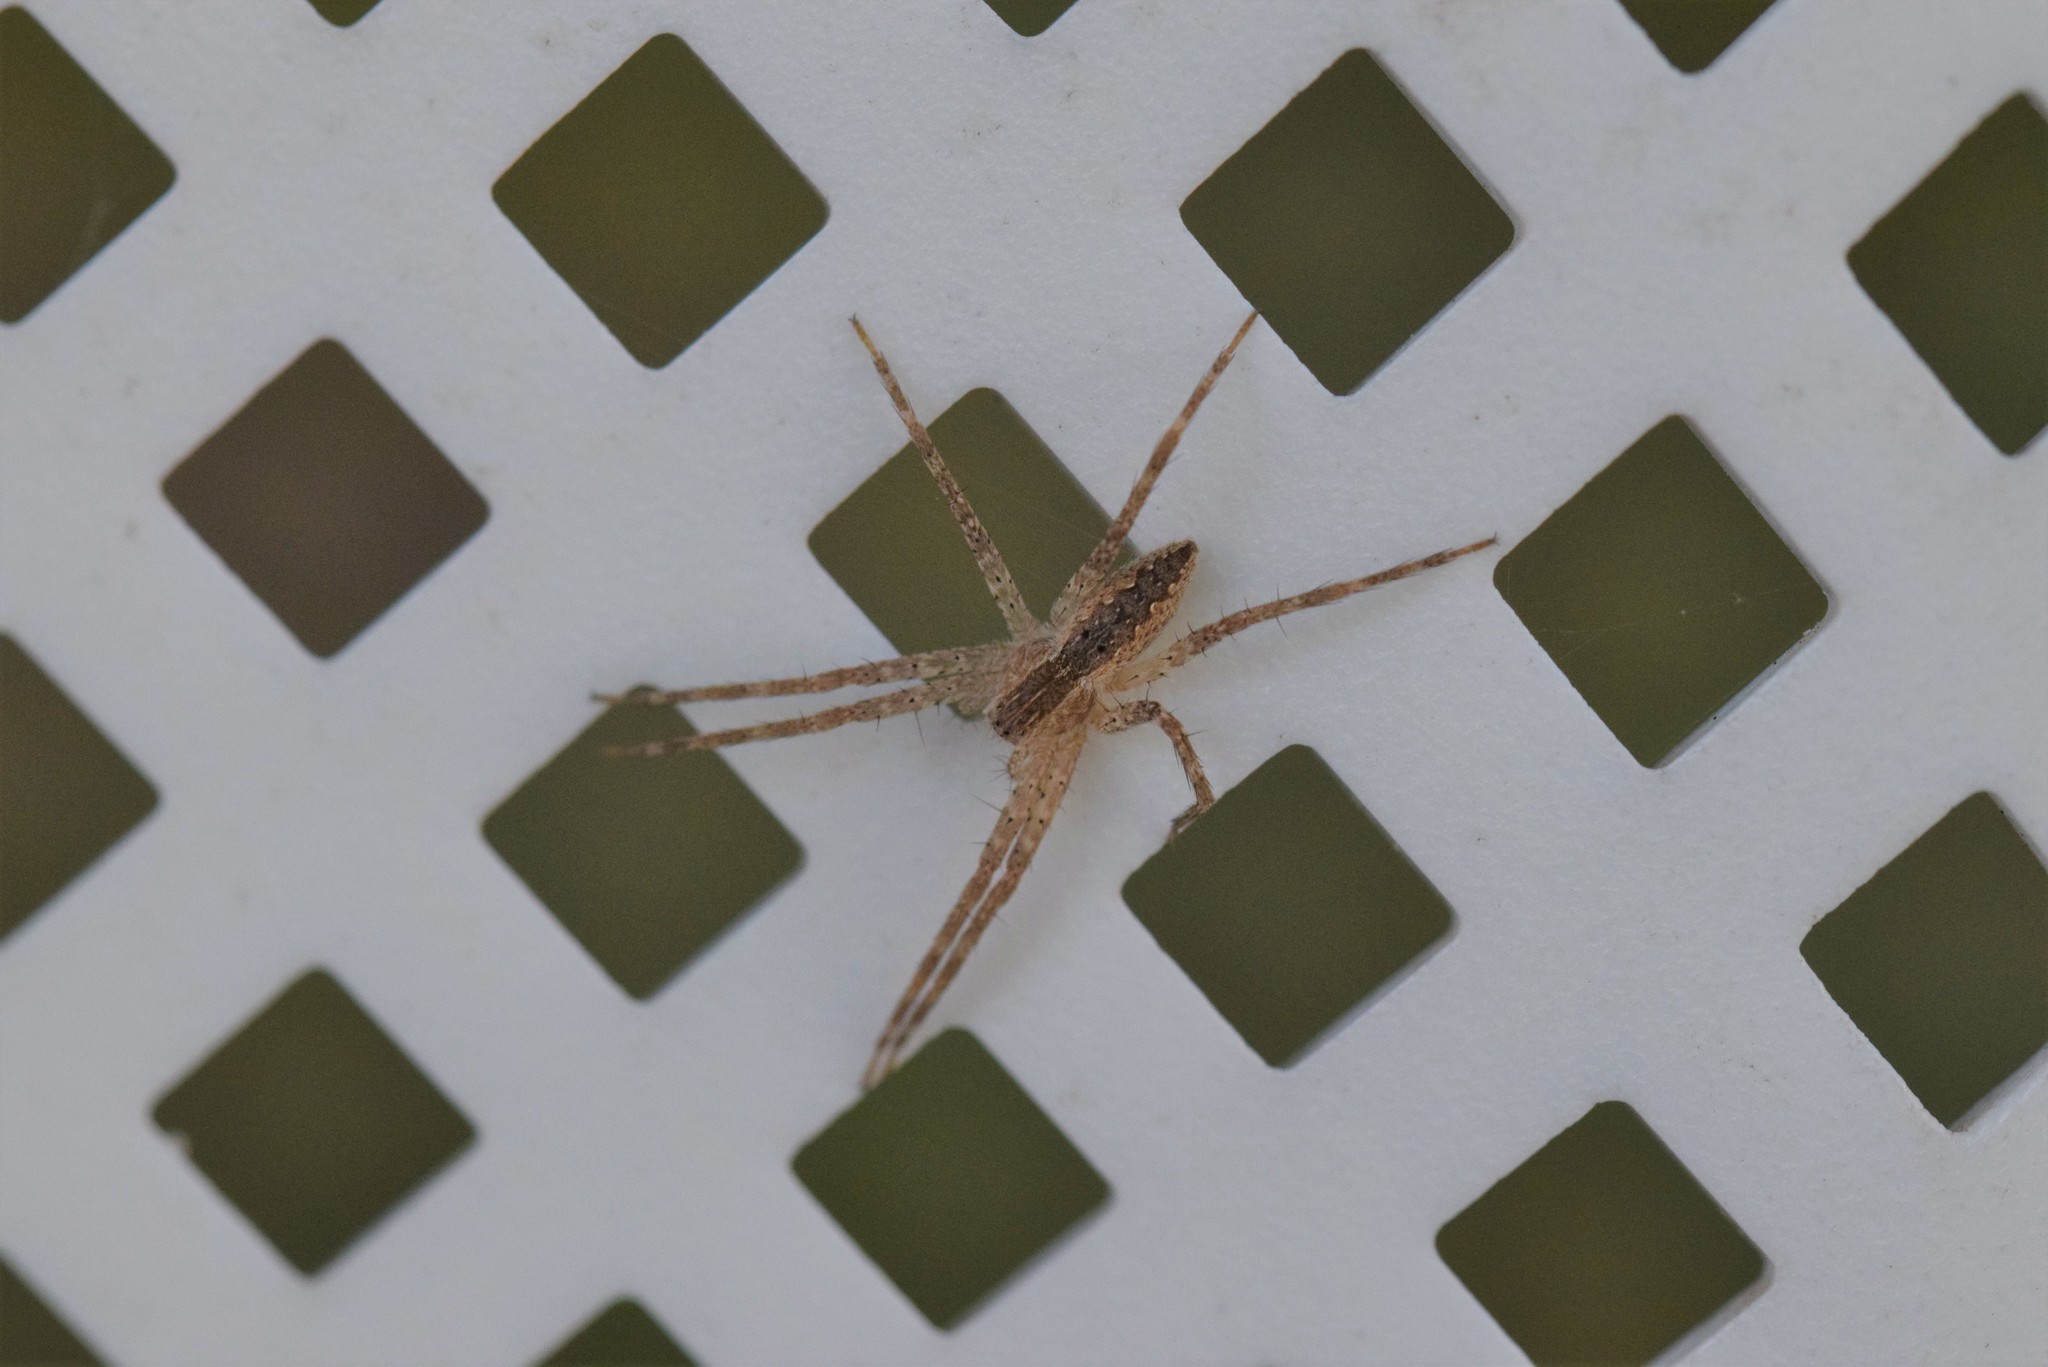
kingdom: Animalia
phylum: Arthropoda
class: Arachnida
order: Araneae
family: Pisauridae
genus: Pisaurina
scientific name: Pisaurina mira
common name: American nursery web spider
